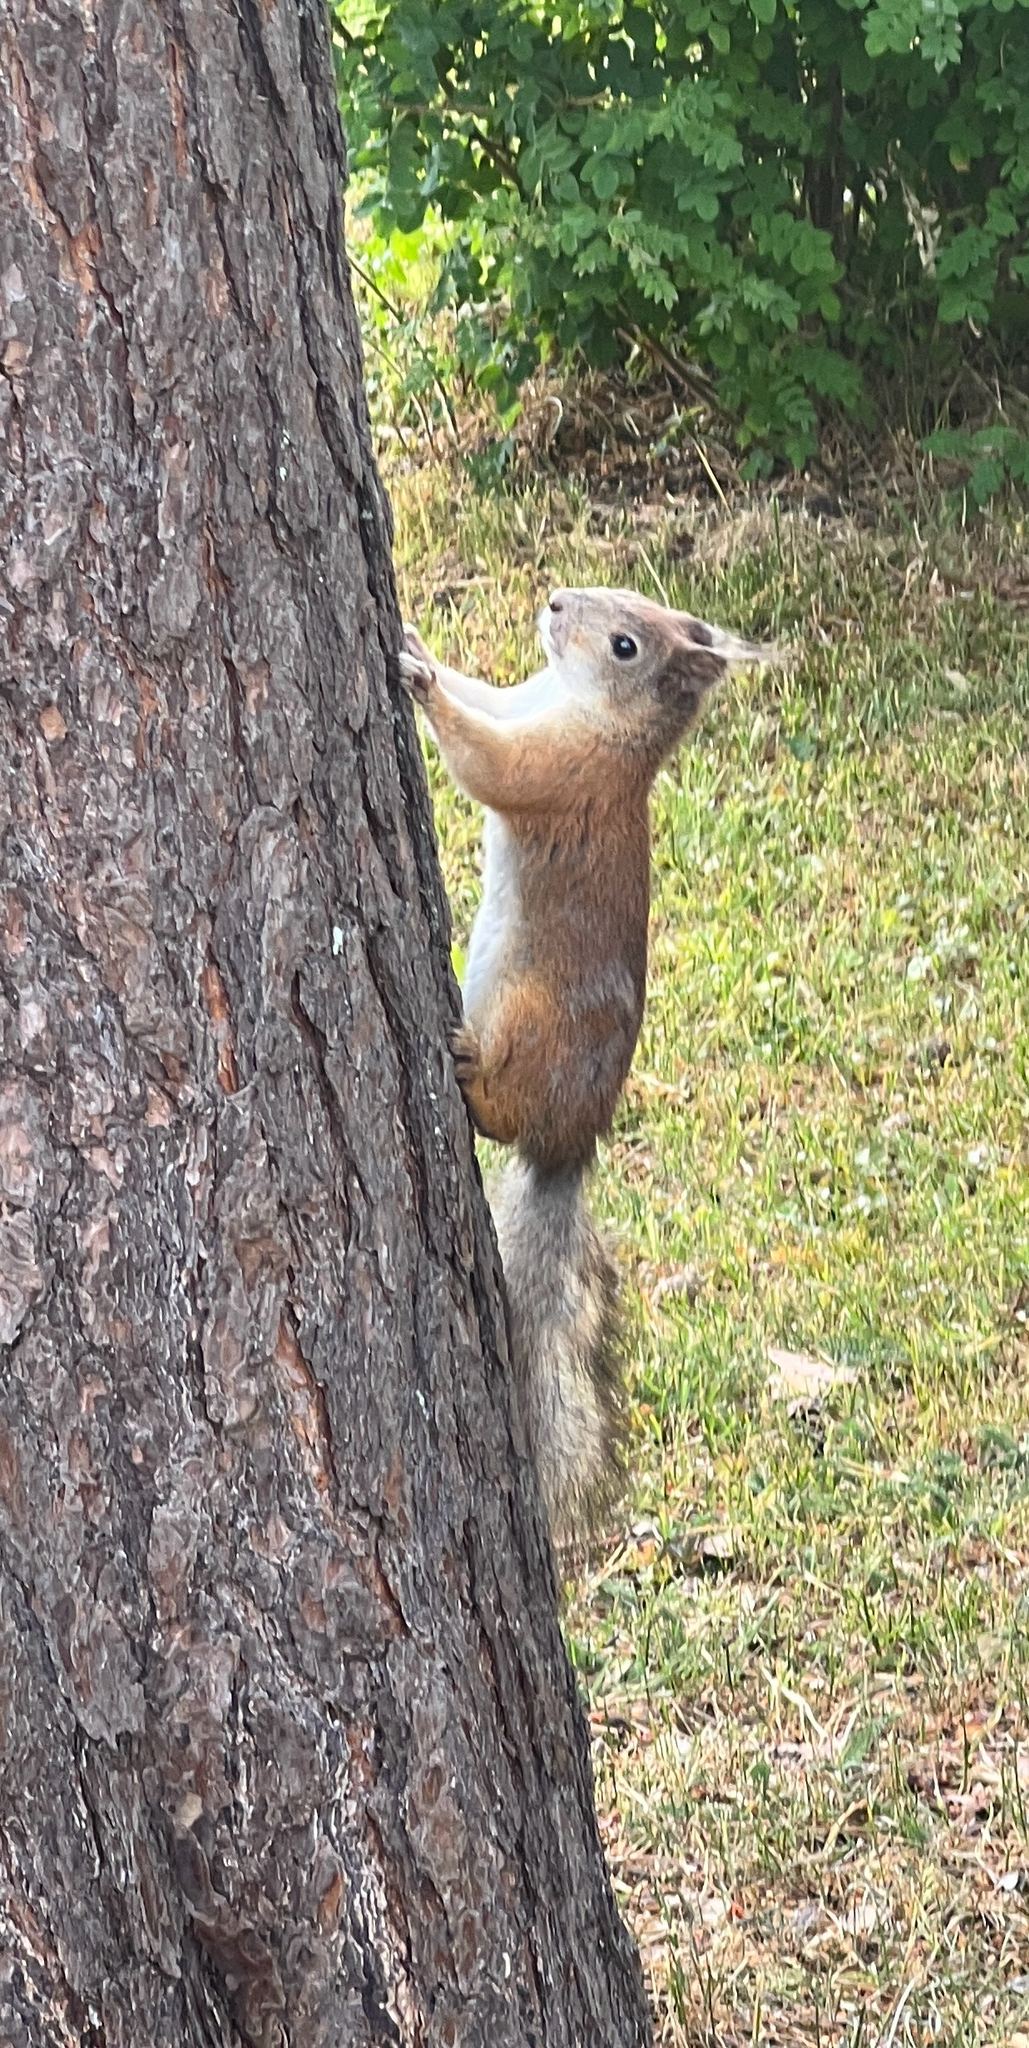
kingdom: Animalia
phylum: Chordata
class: Mammalia
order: Rodentia
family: Sciuridae
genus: Sciurus
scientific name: Sciurus vulgaris
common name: Eurasian red squirrel
